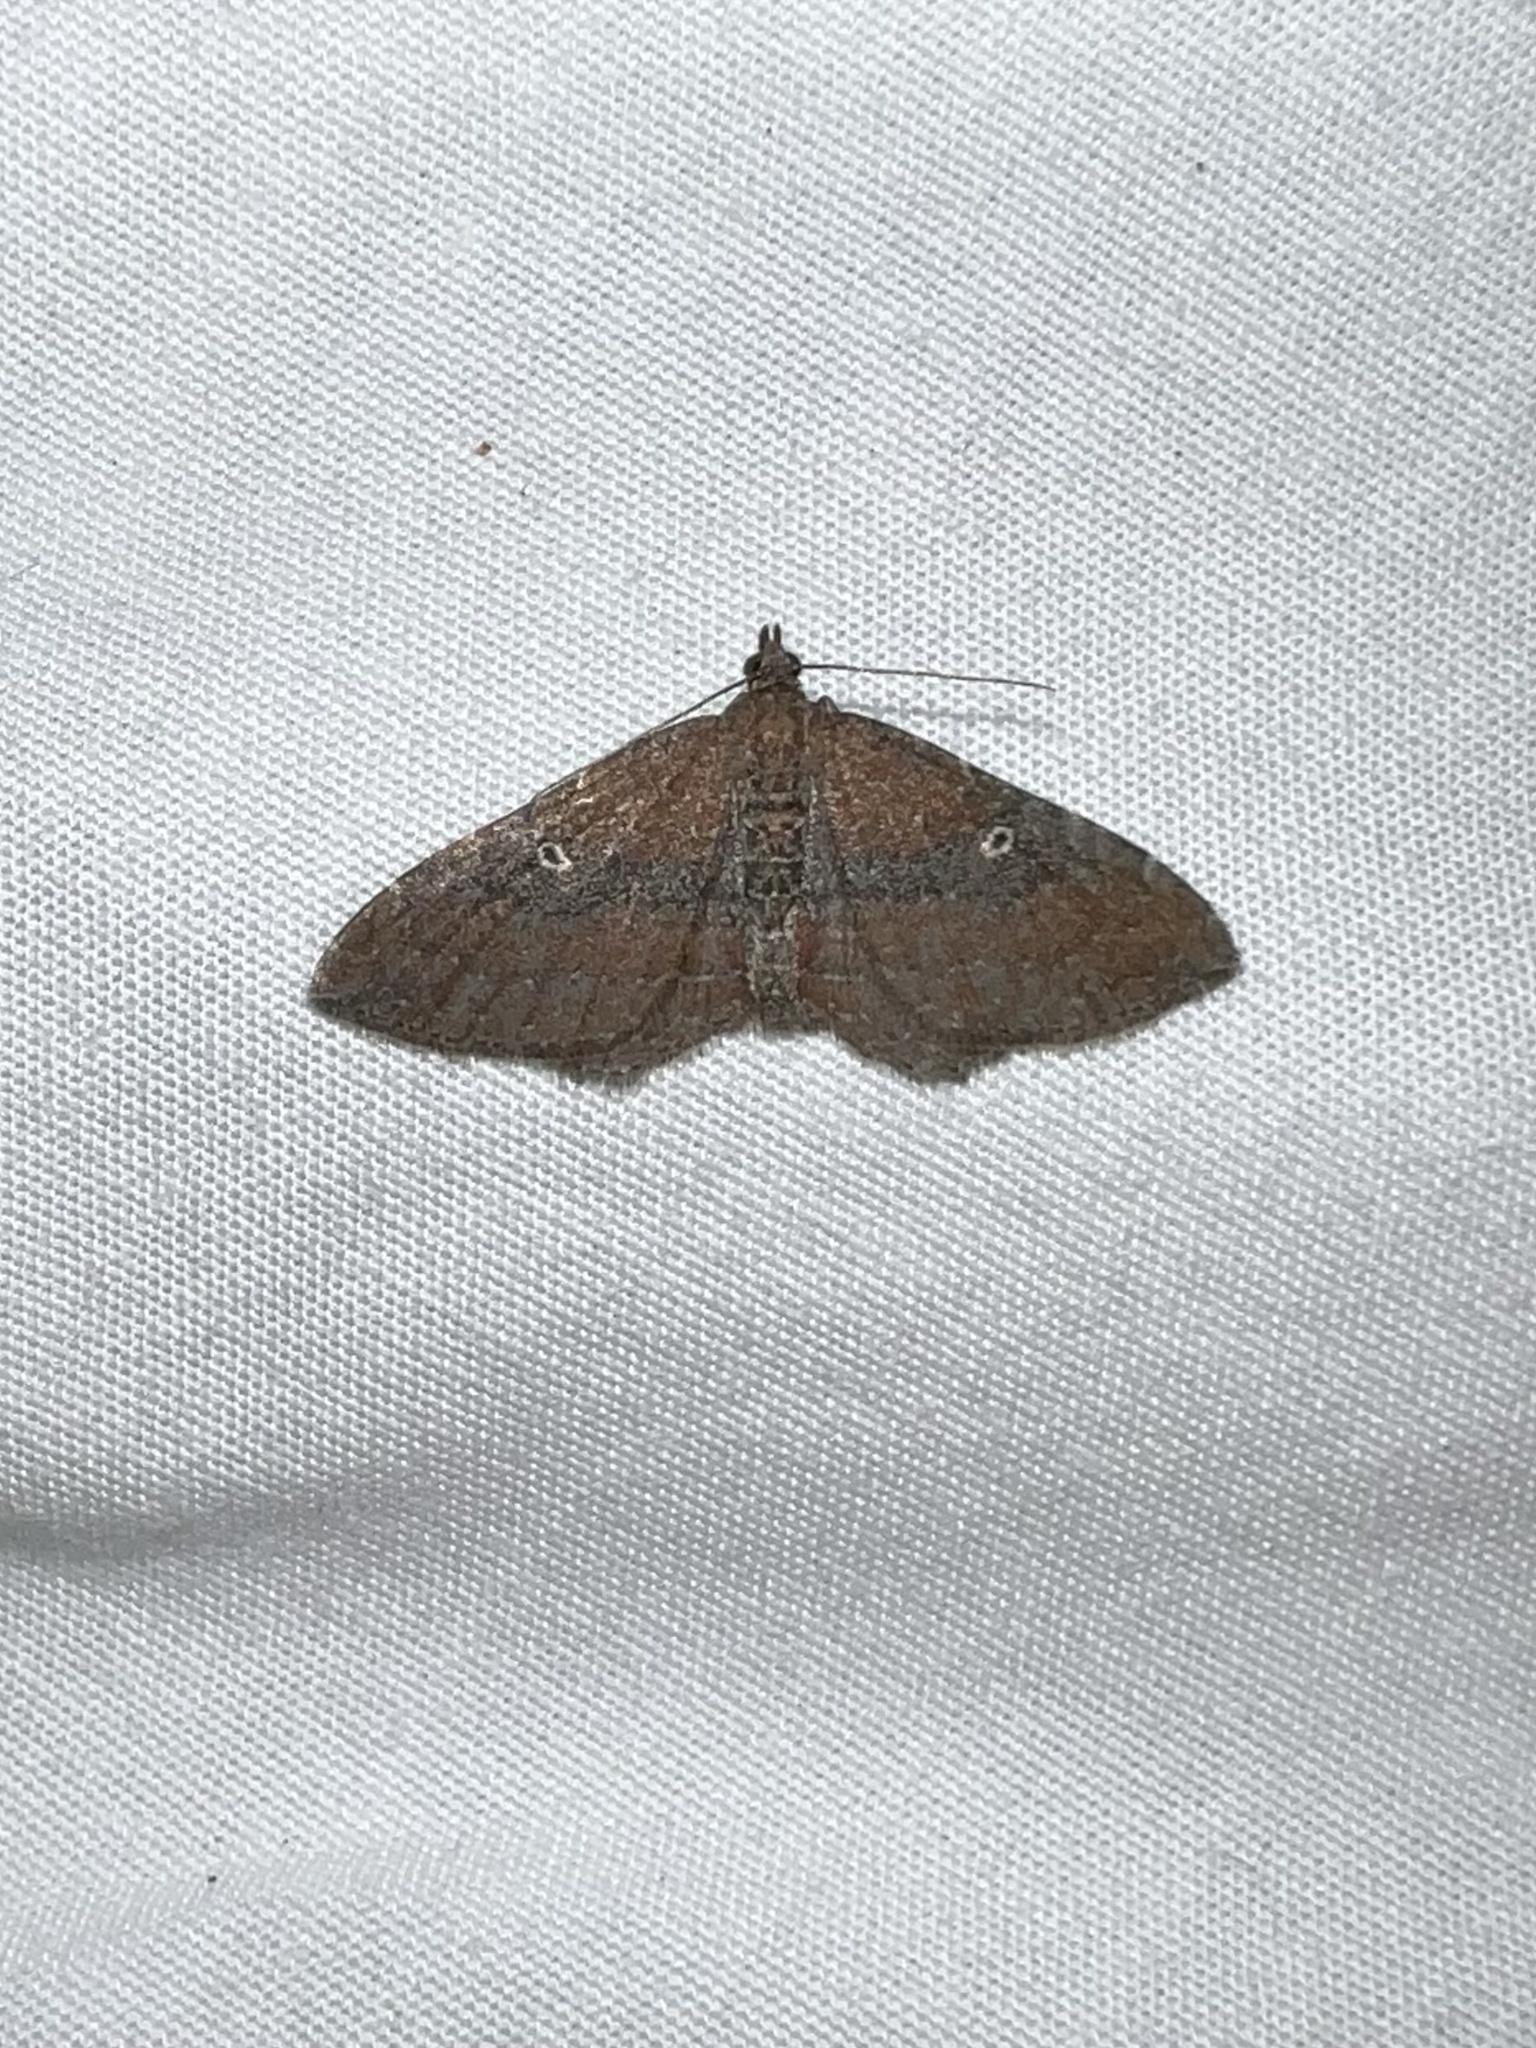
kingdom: Animalia
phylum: Arthropoda
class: Insecta
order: Lepidoptera
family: Geometridae
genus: Orthonama
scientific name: Orthonama obstipata
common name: The gem
